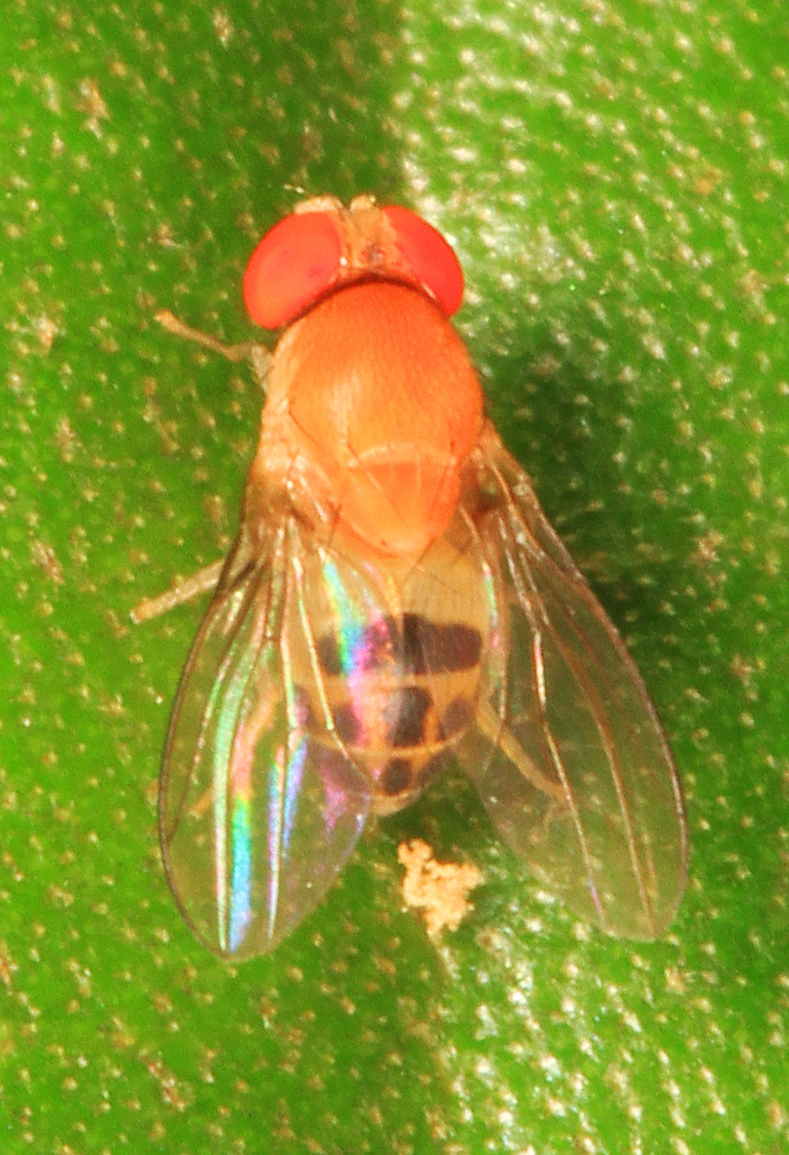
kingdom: Animalia
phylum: Arthropoda
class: Insecta
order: Diptera
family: Drosophilidae
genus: Leucophenga
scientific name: Leucophenga varia
